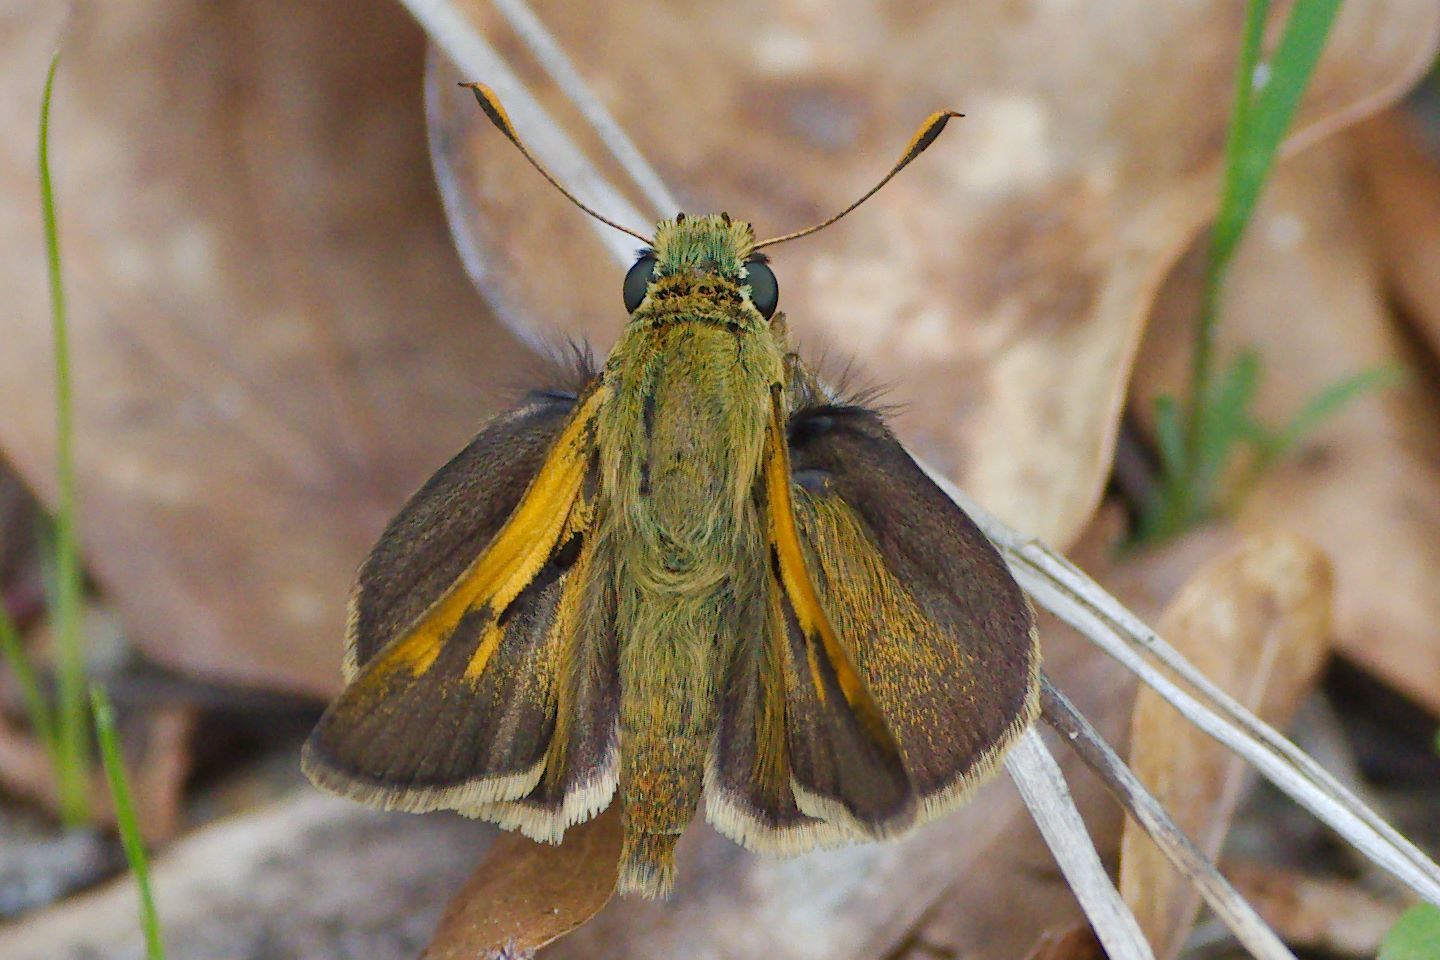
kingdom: Animalia
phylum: Arthropoda
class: Insecta
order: Lepidoptera
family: Hesperiidae
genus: Polites
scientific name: Polites themistocles
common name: Tawny-edged skipper
